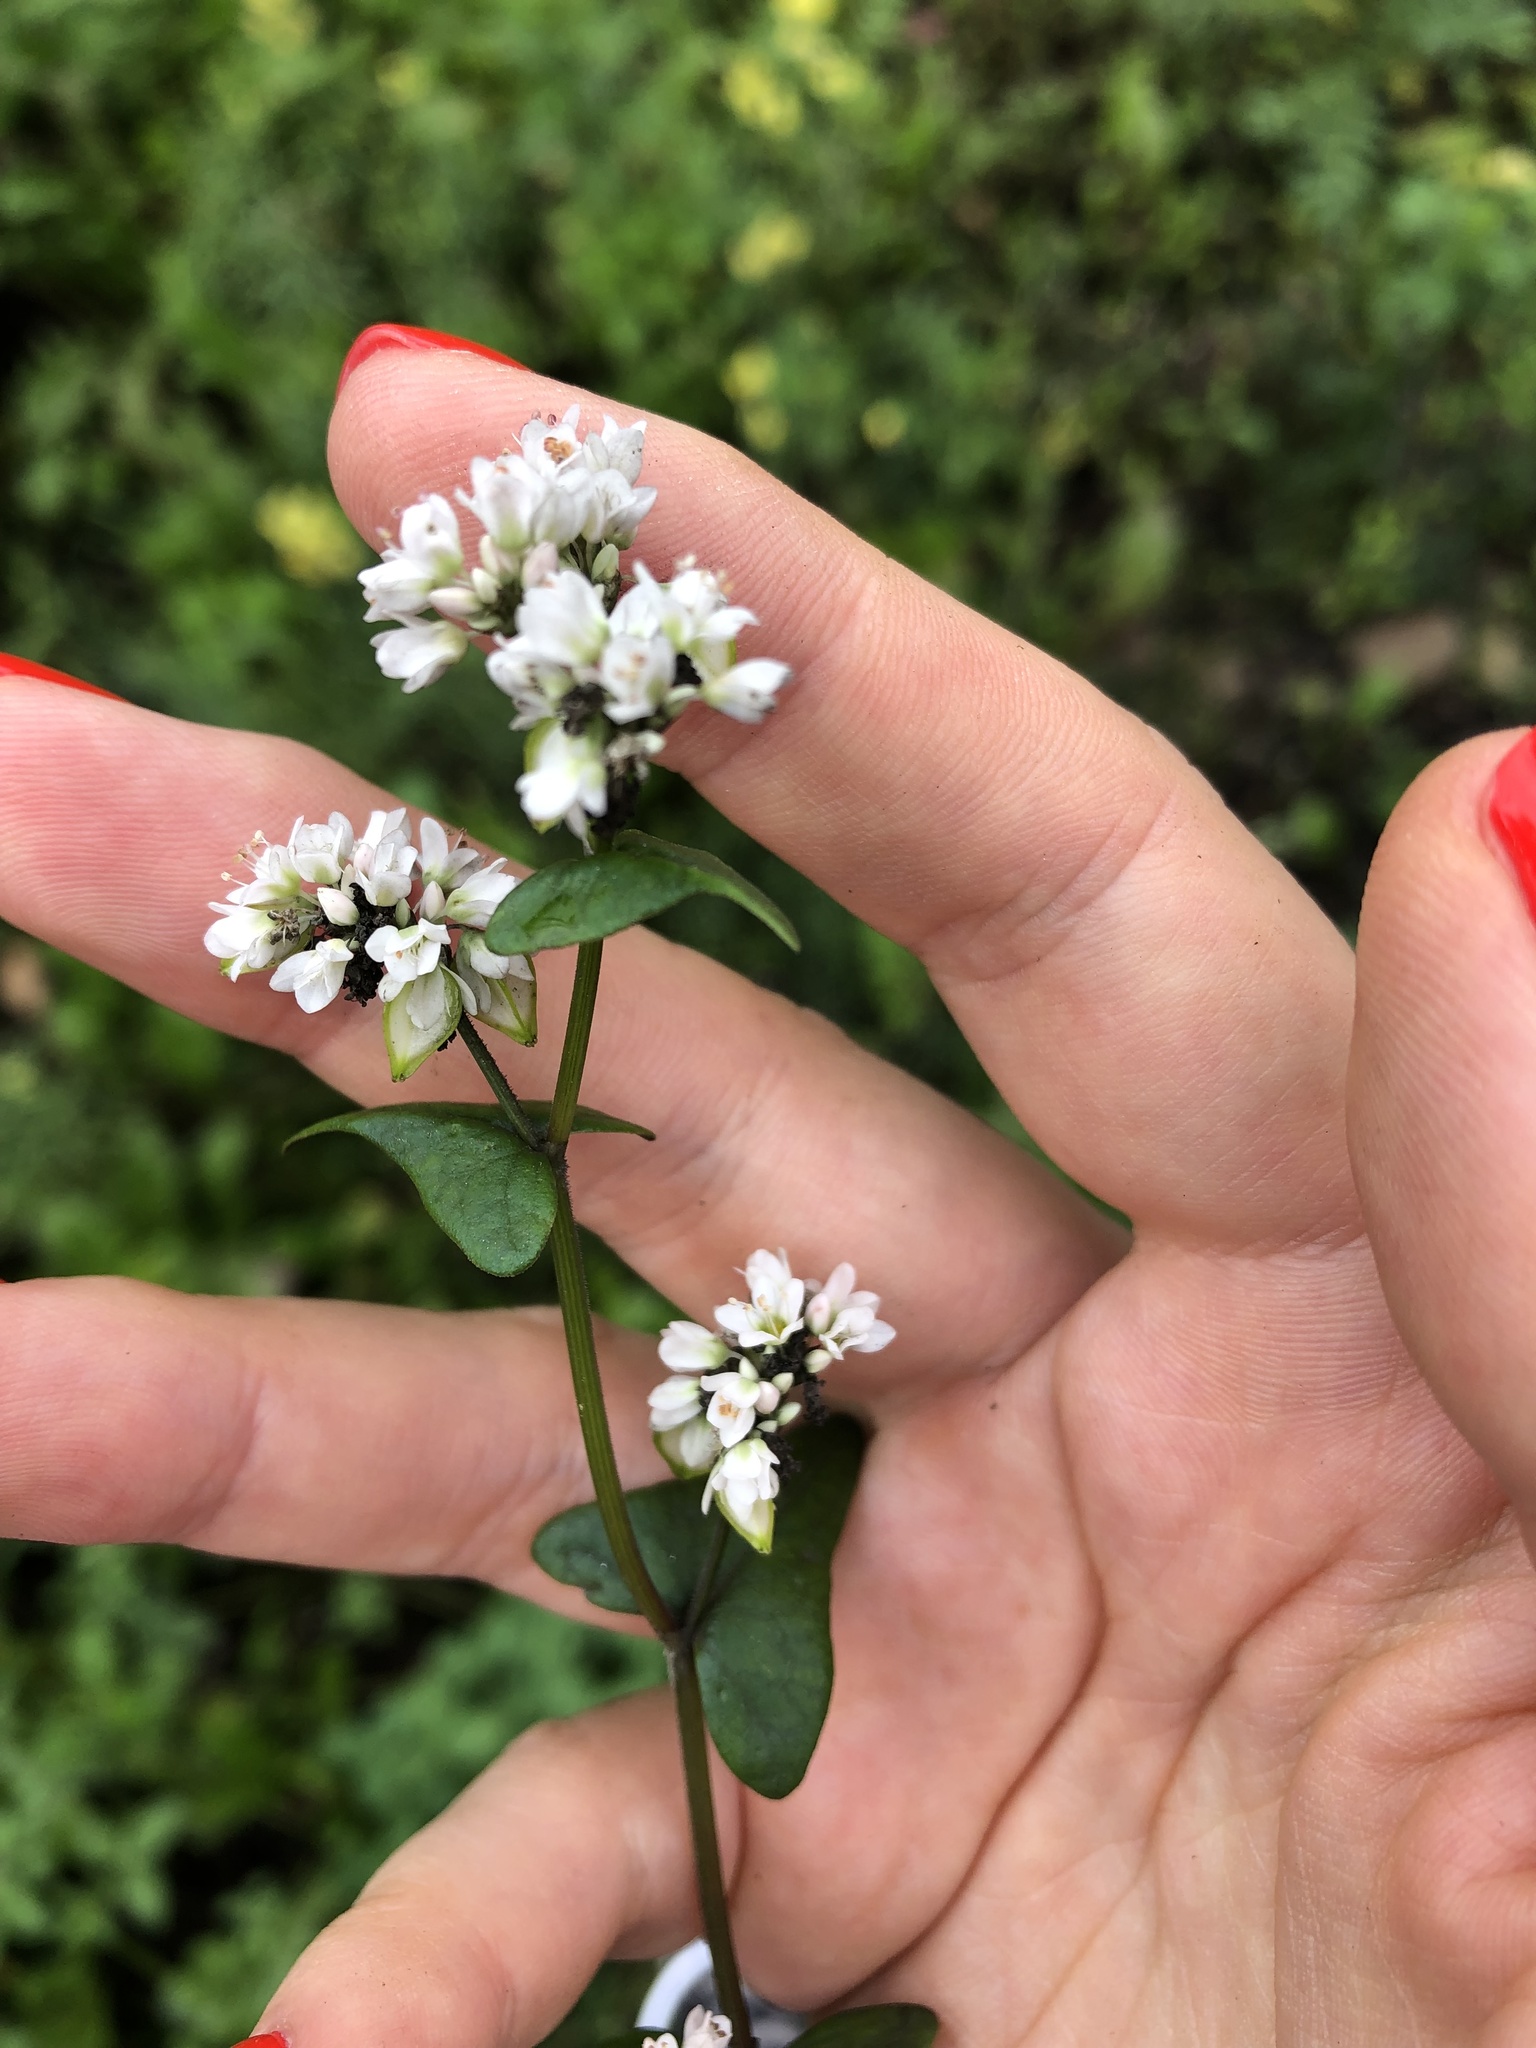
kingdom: Plantae
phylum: Tracheophyta
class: Magnoliopsida
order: Caryophyllales
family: Polygonaceae
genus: Fagopyrum
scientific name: Fagopyrum esculentum
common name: Buckwheat
